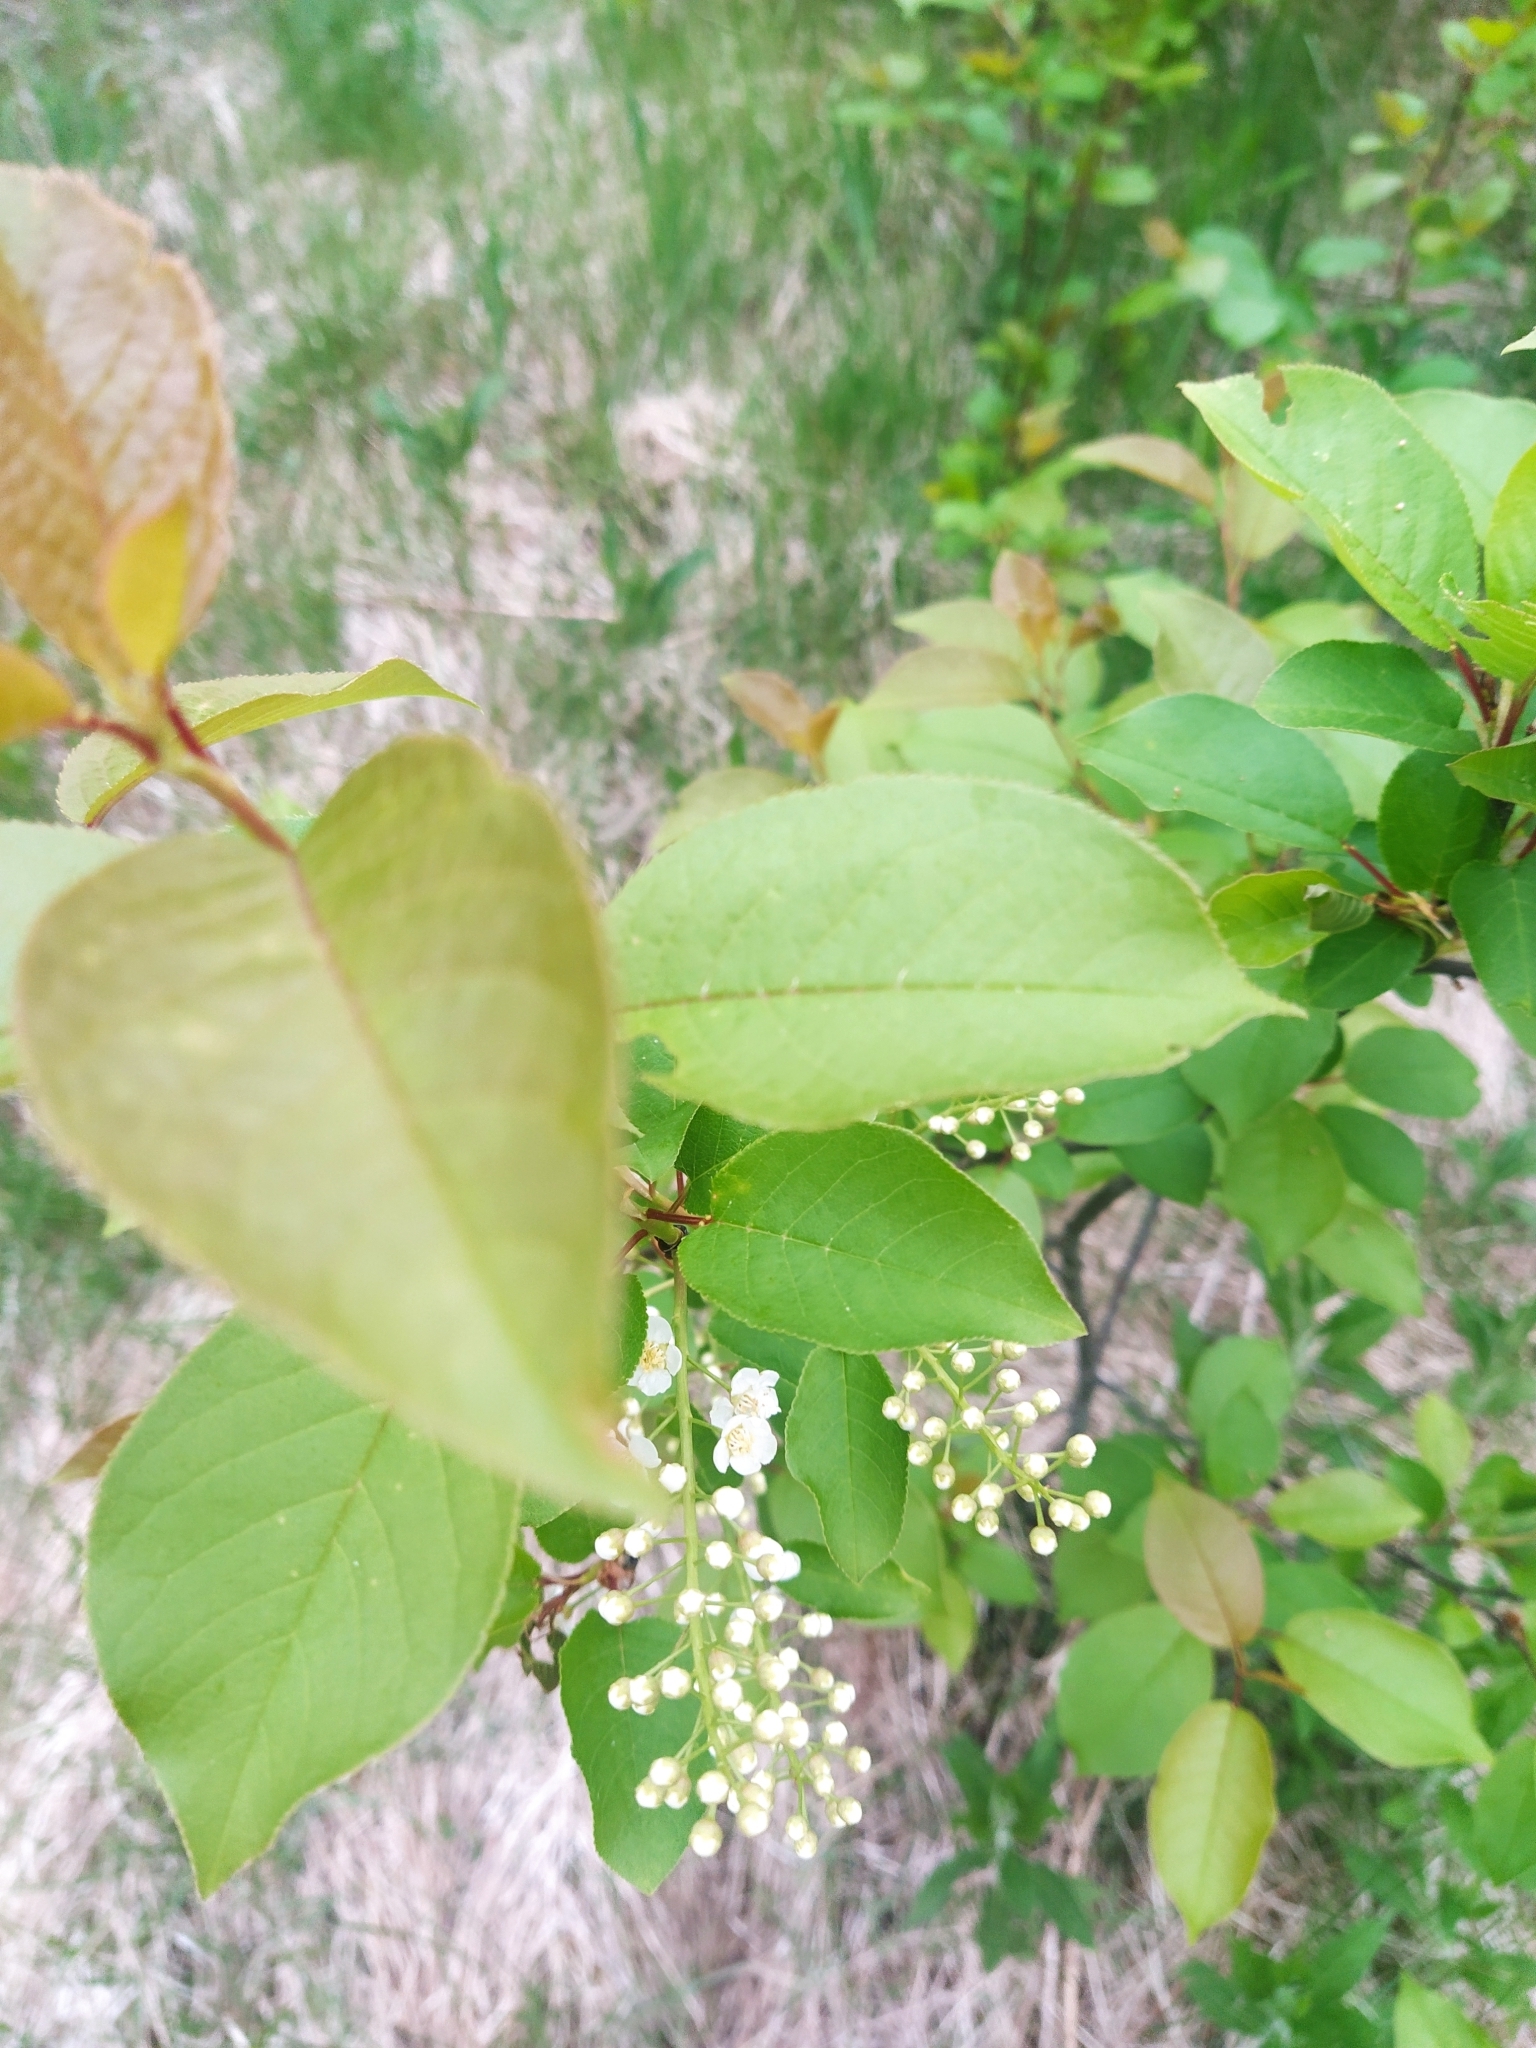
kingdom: Plantae
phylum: Tracheophyta
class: Magnoliopsida
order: Rosales
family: Rosaceae
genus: Prunus
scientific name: Prunus virginiana
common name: Chokecherry
